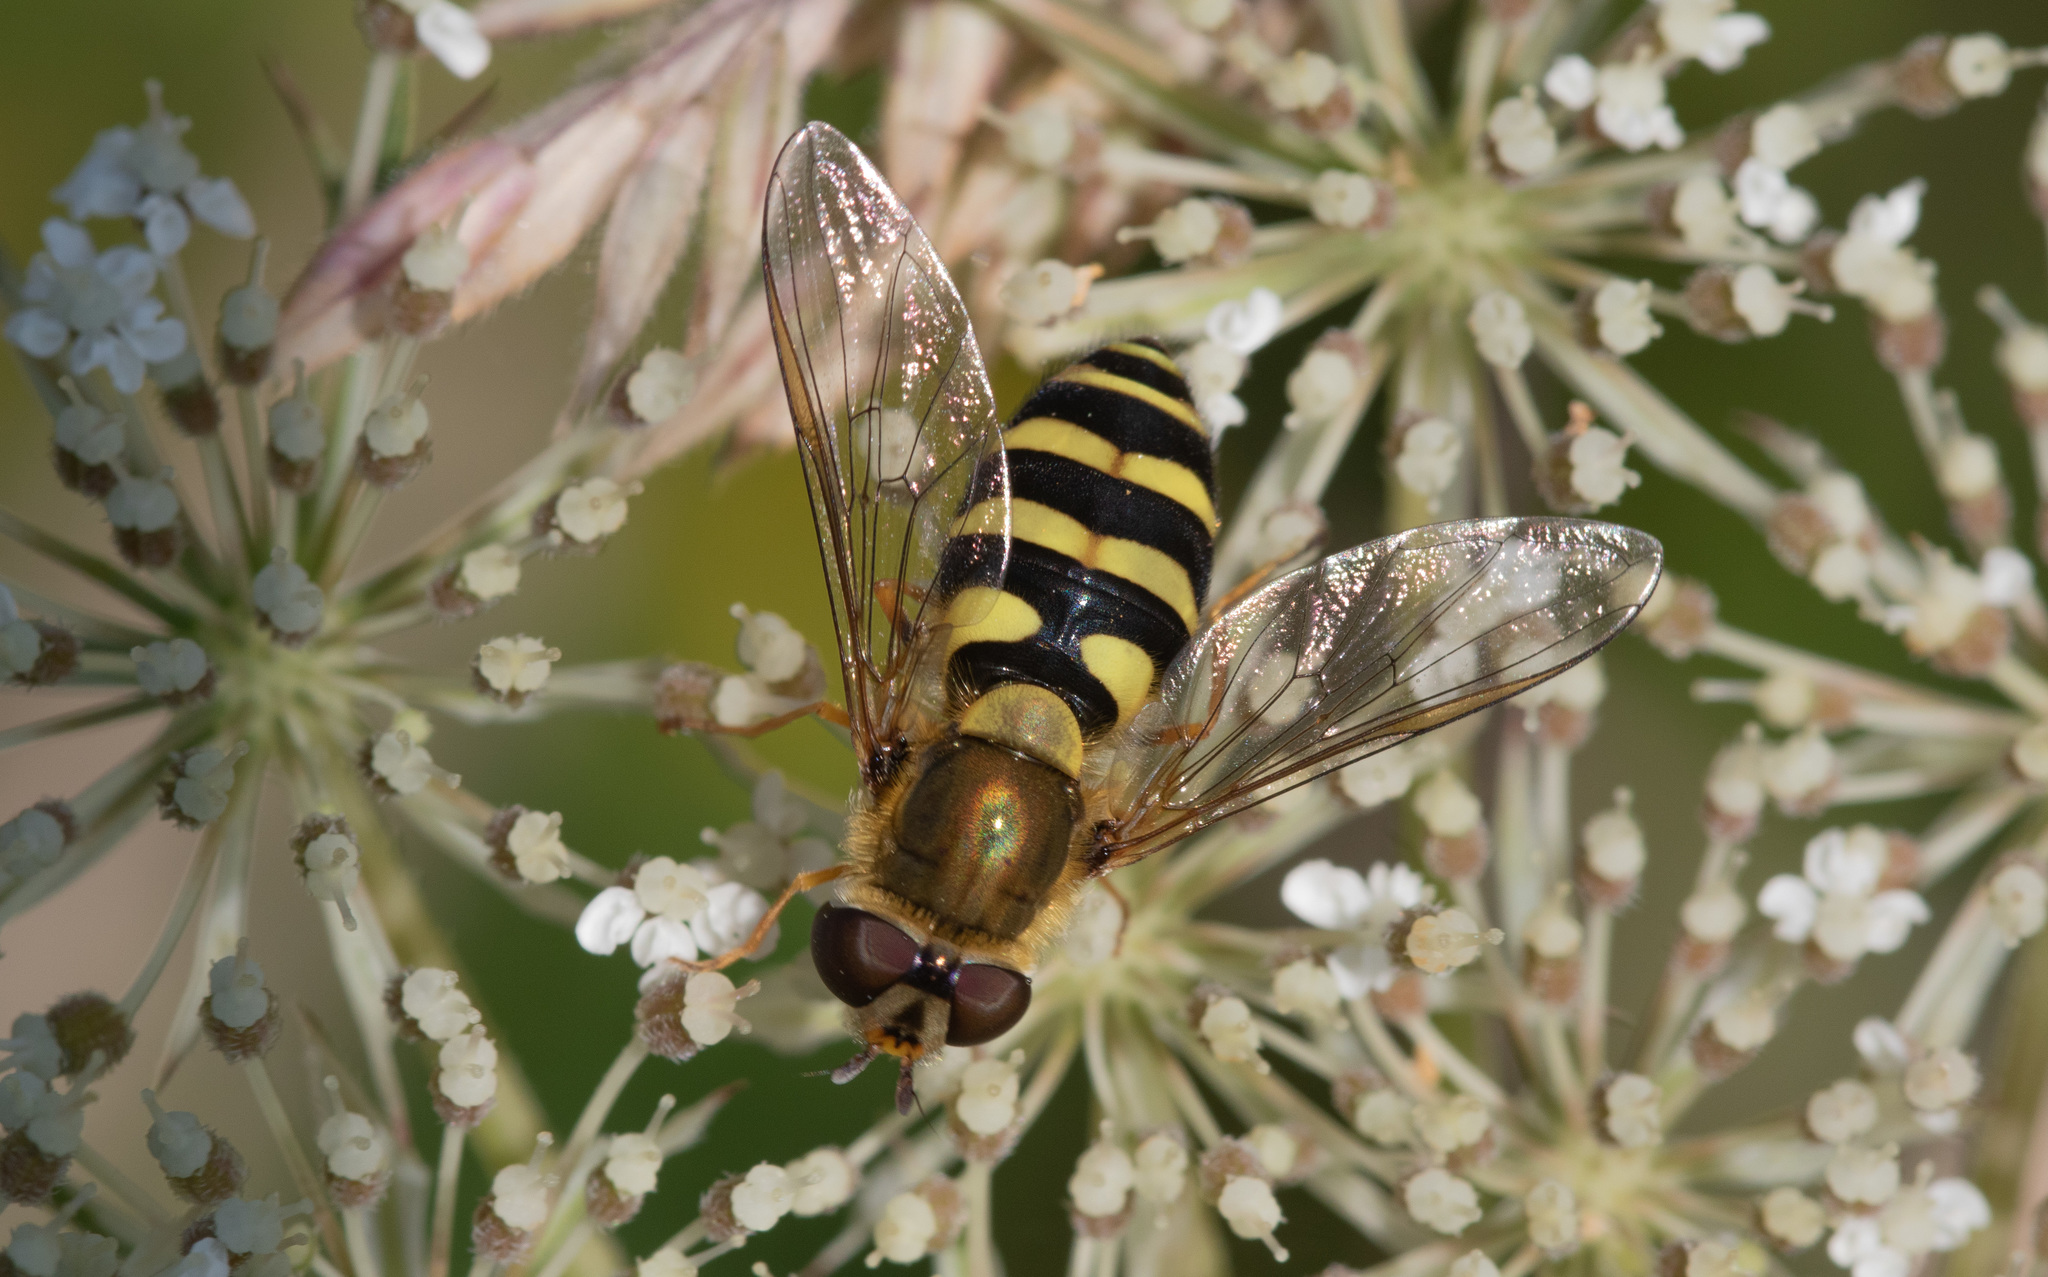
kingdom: Animalia
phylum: Arthropoda
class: Insecta
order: Diptera
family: Syrphidae
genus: Syrphus
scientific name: Syrphus
